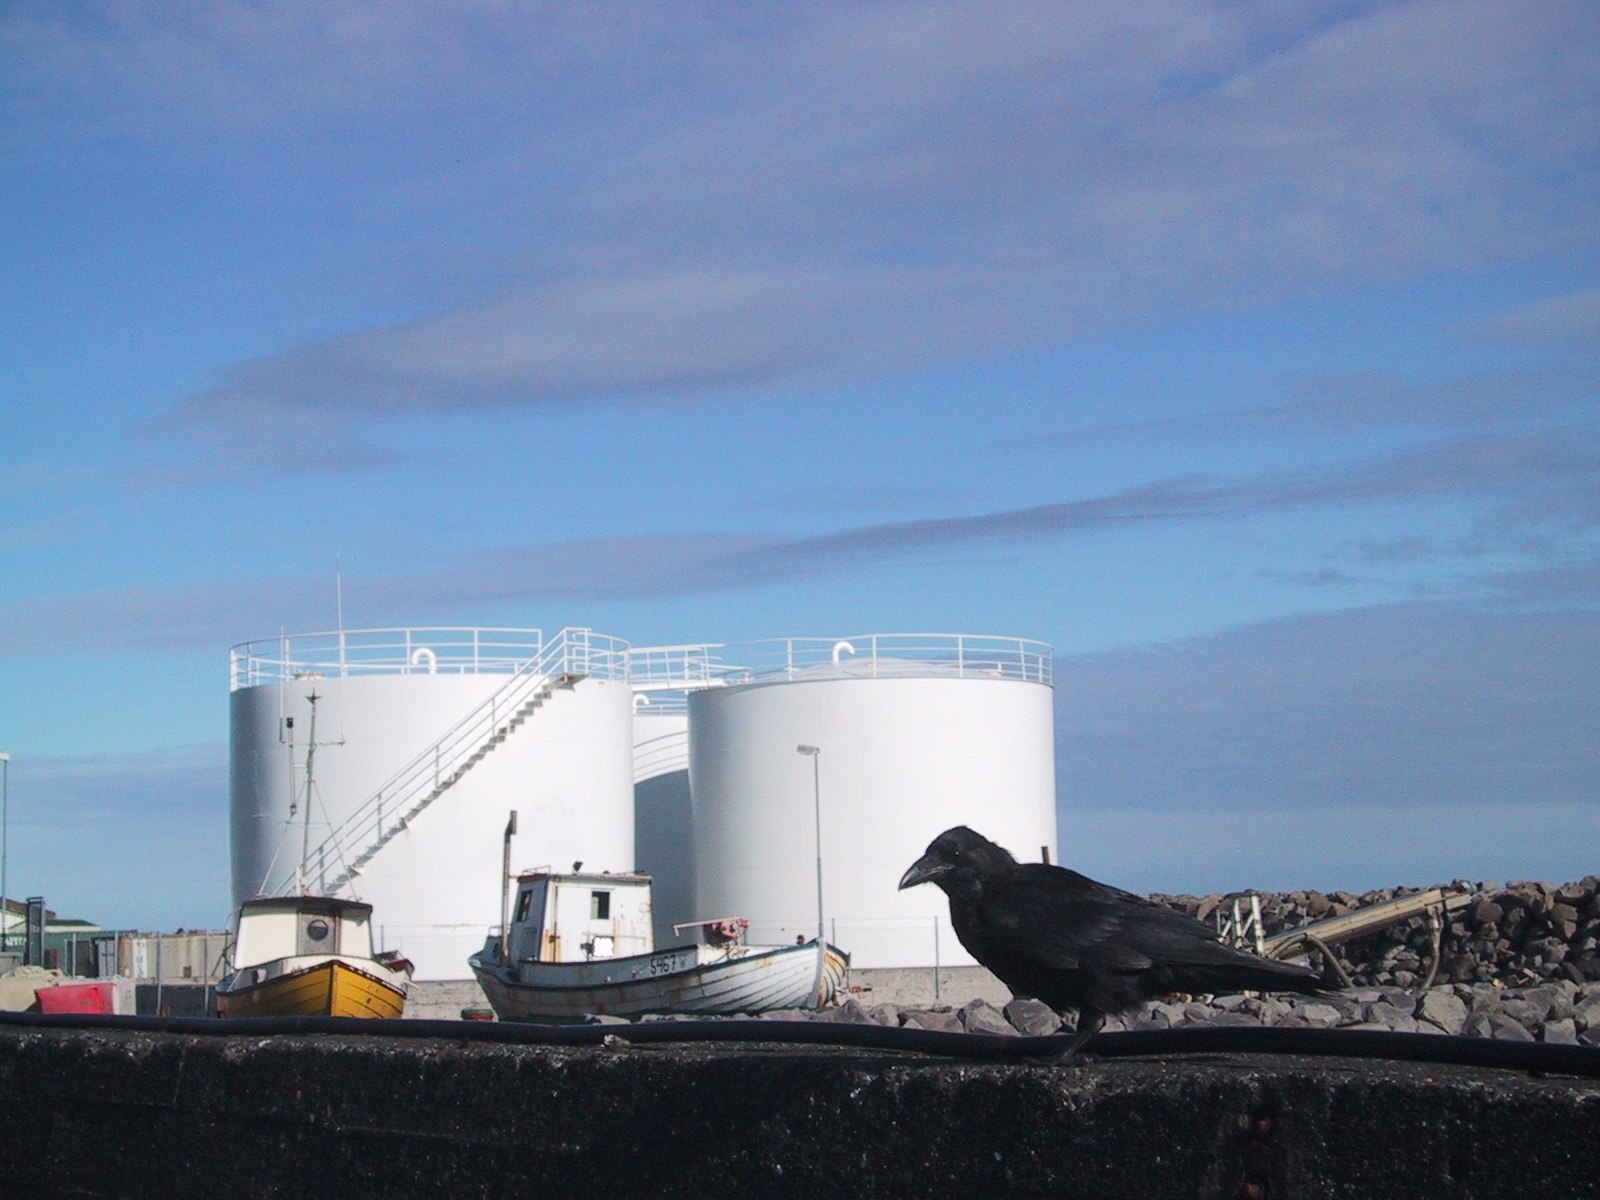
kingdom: Animalia
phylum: Chordata
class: Aves
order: Passeriformes
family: Corvidae
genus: Corvus
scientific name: Corvus corax
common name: Common raven
